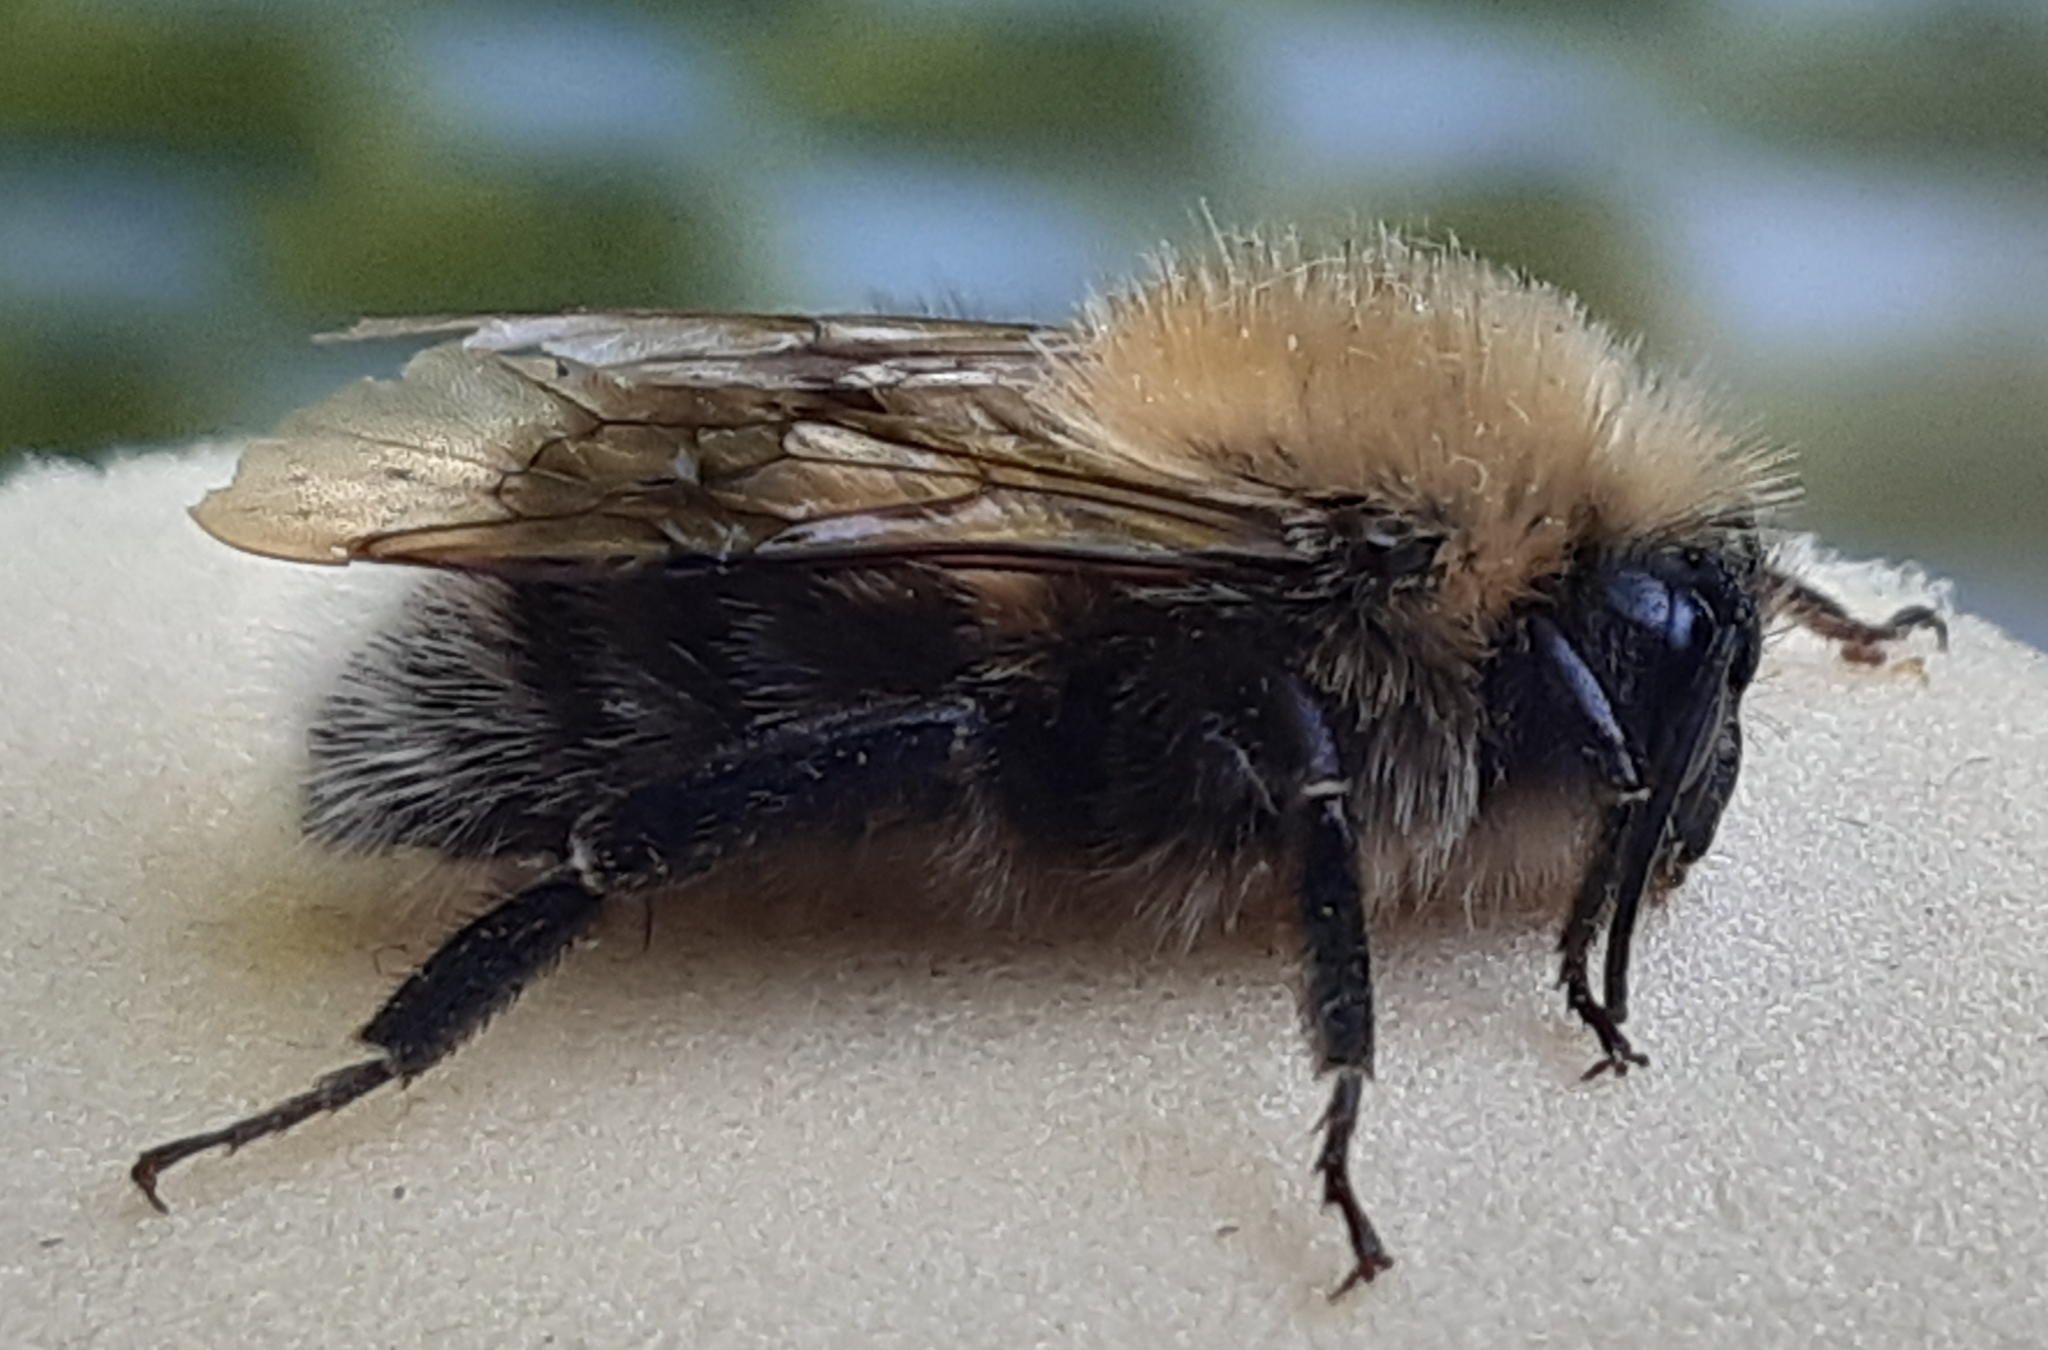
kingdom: Animalia
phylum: Arthropoda
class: Insecta
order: Hymenoptera
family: Apidae
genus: Bombus
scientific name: Bombus hypnorum
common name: New garden bumblebee
